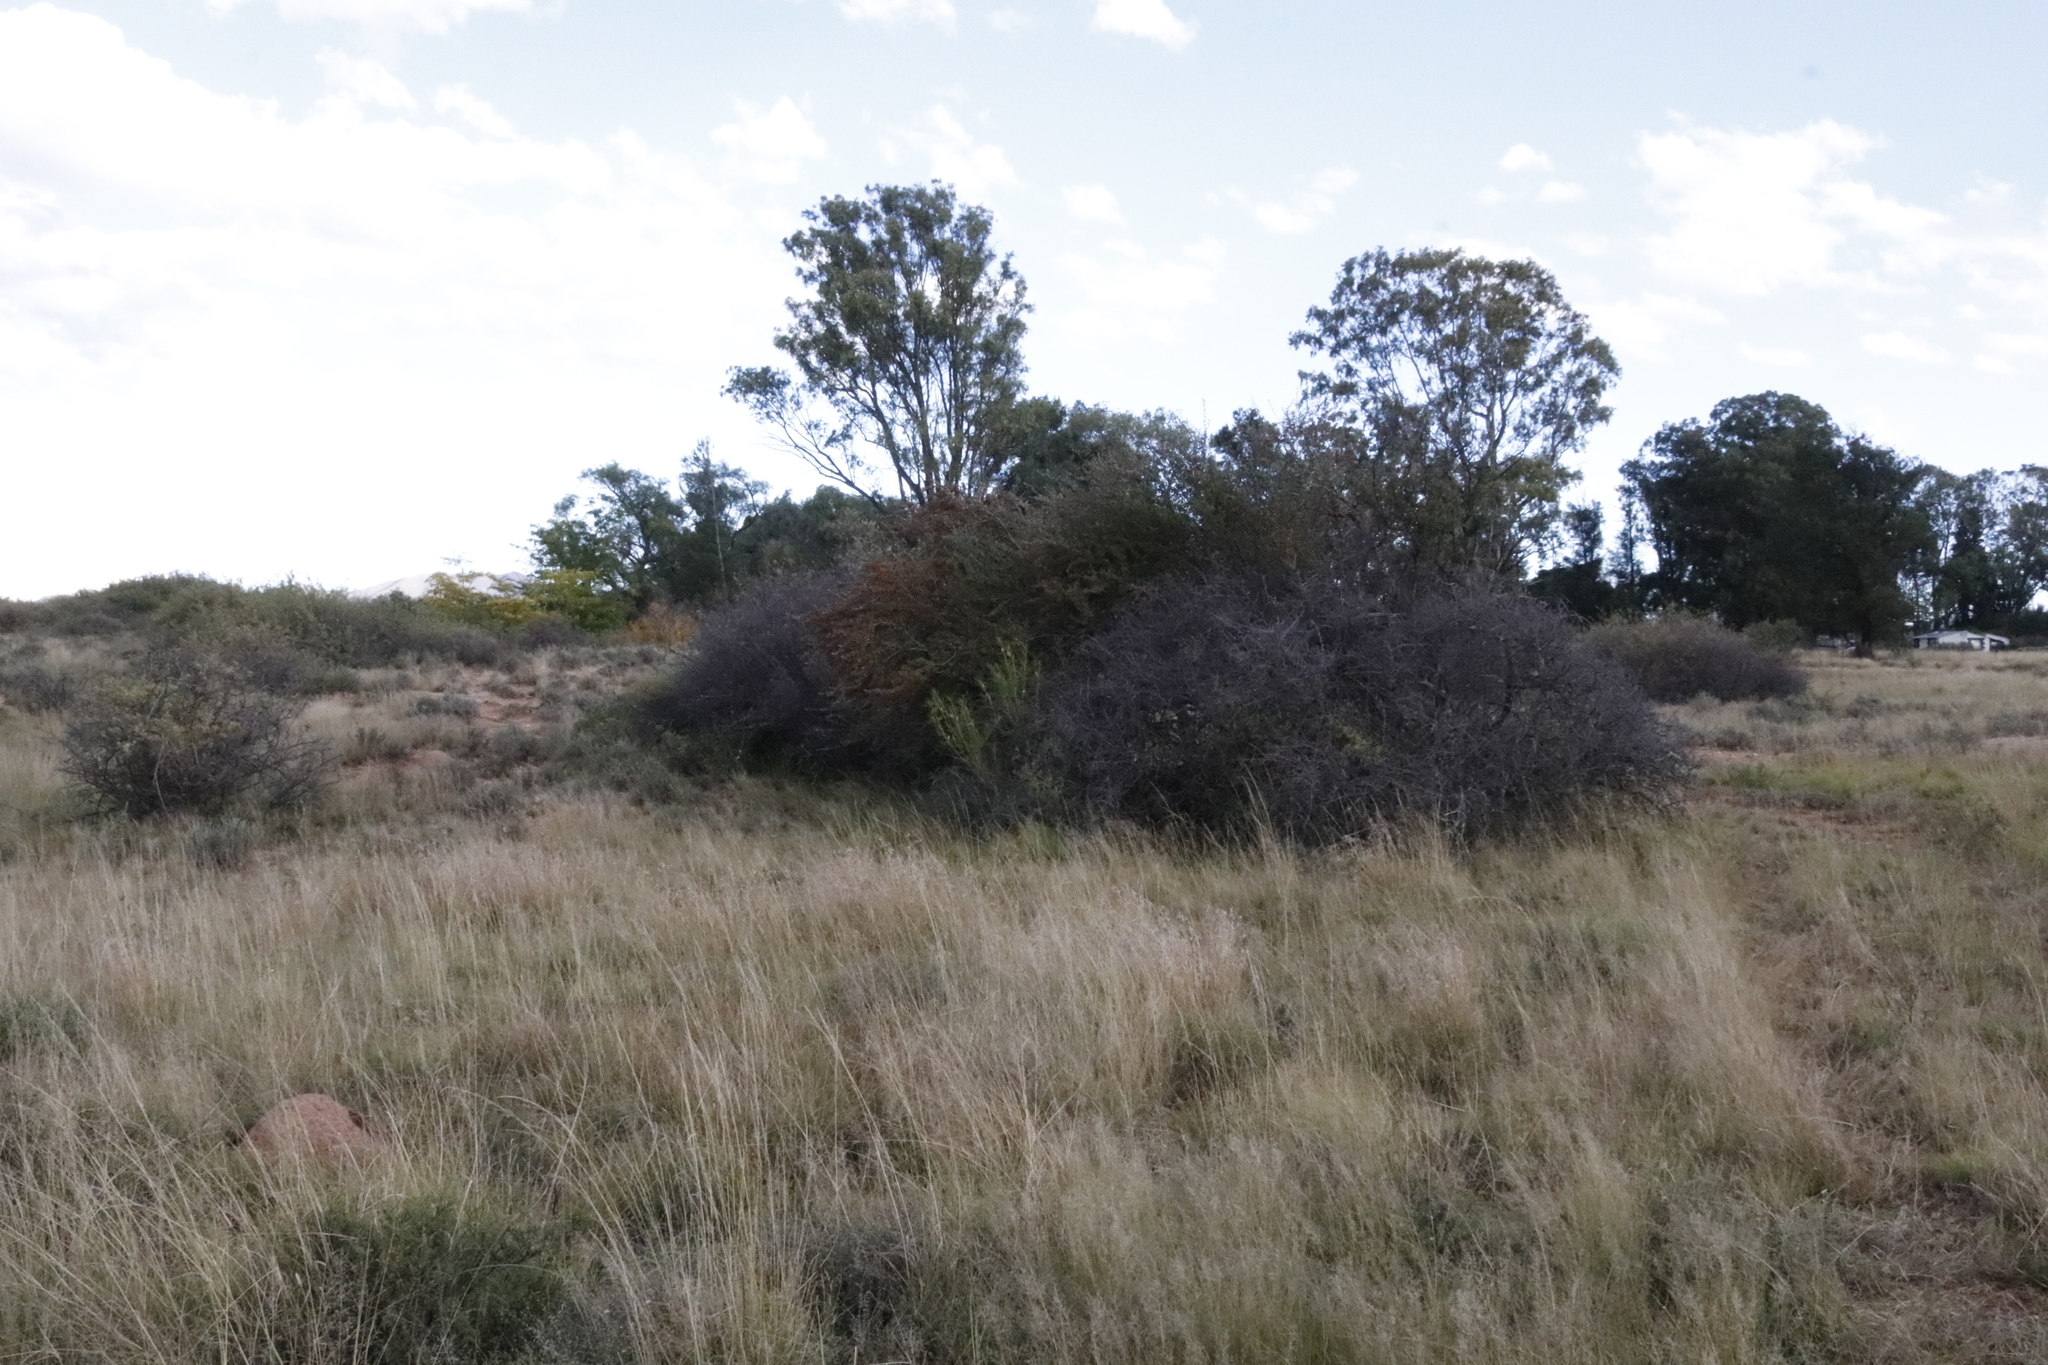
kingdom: Plantae
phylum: Tracheophyta
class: Magnoliopsida
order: Rosales
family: Rosaceae
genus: Cotoneaster
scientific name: Cotoneaster pannosus
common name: Silverleaf cotoneaster
